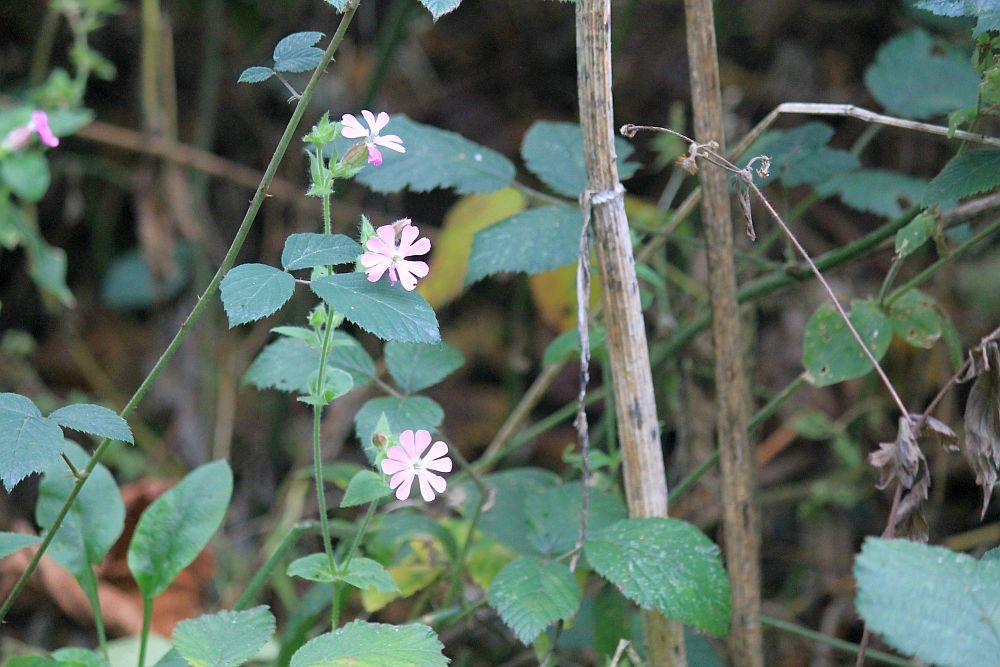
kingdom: Plantae
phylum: Tracheophyta
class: Magnoliopsida
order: Caryophyllales
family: Caryophyllaceae
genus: Silene
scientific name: Silene dioica
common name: Red campion
